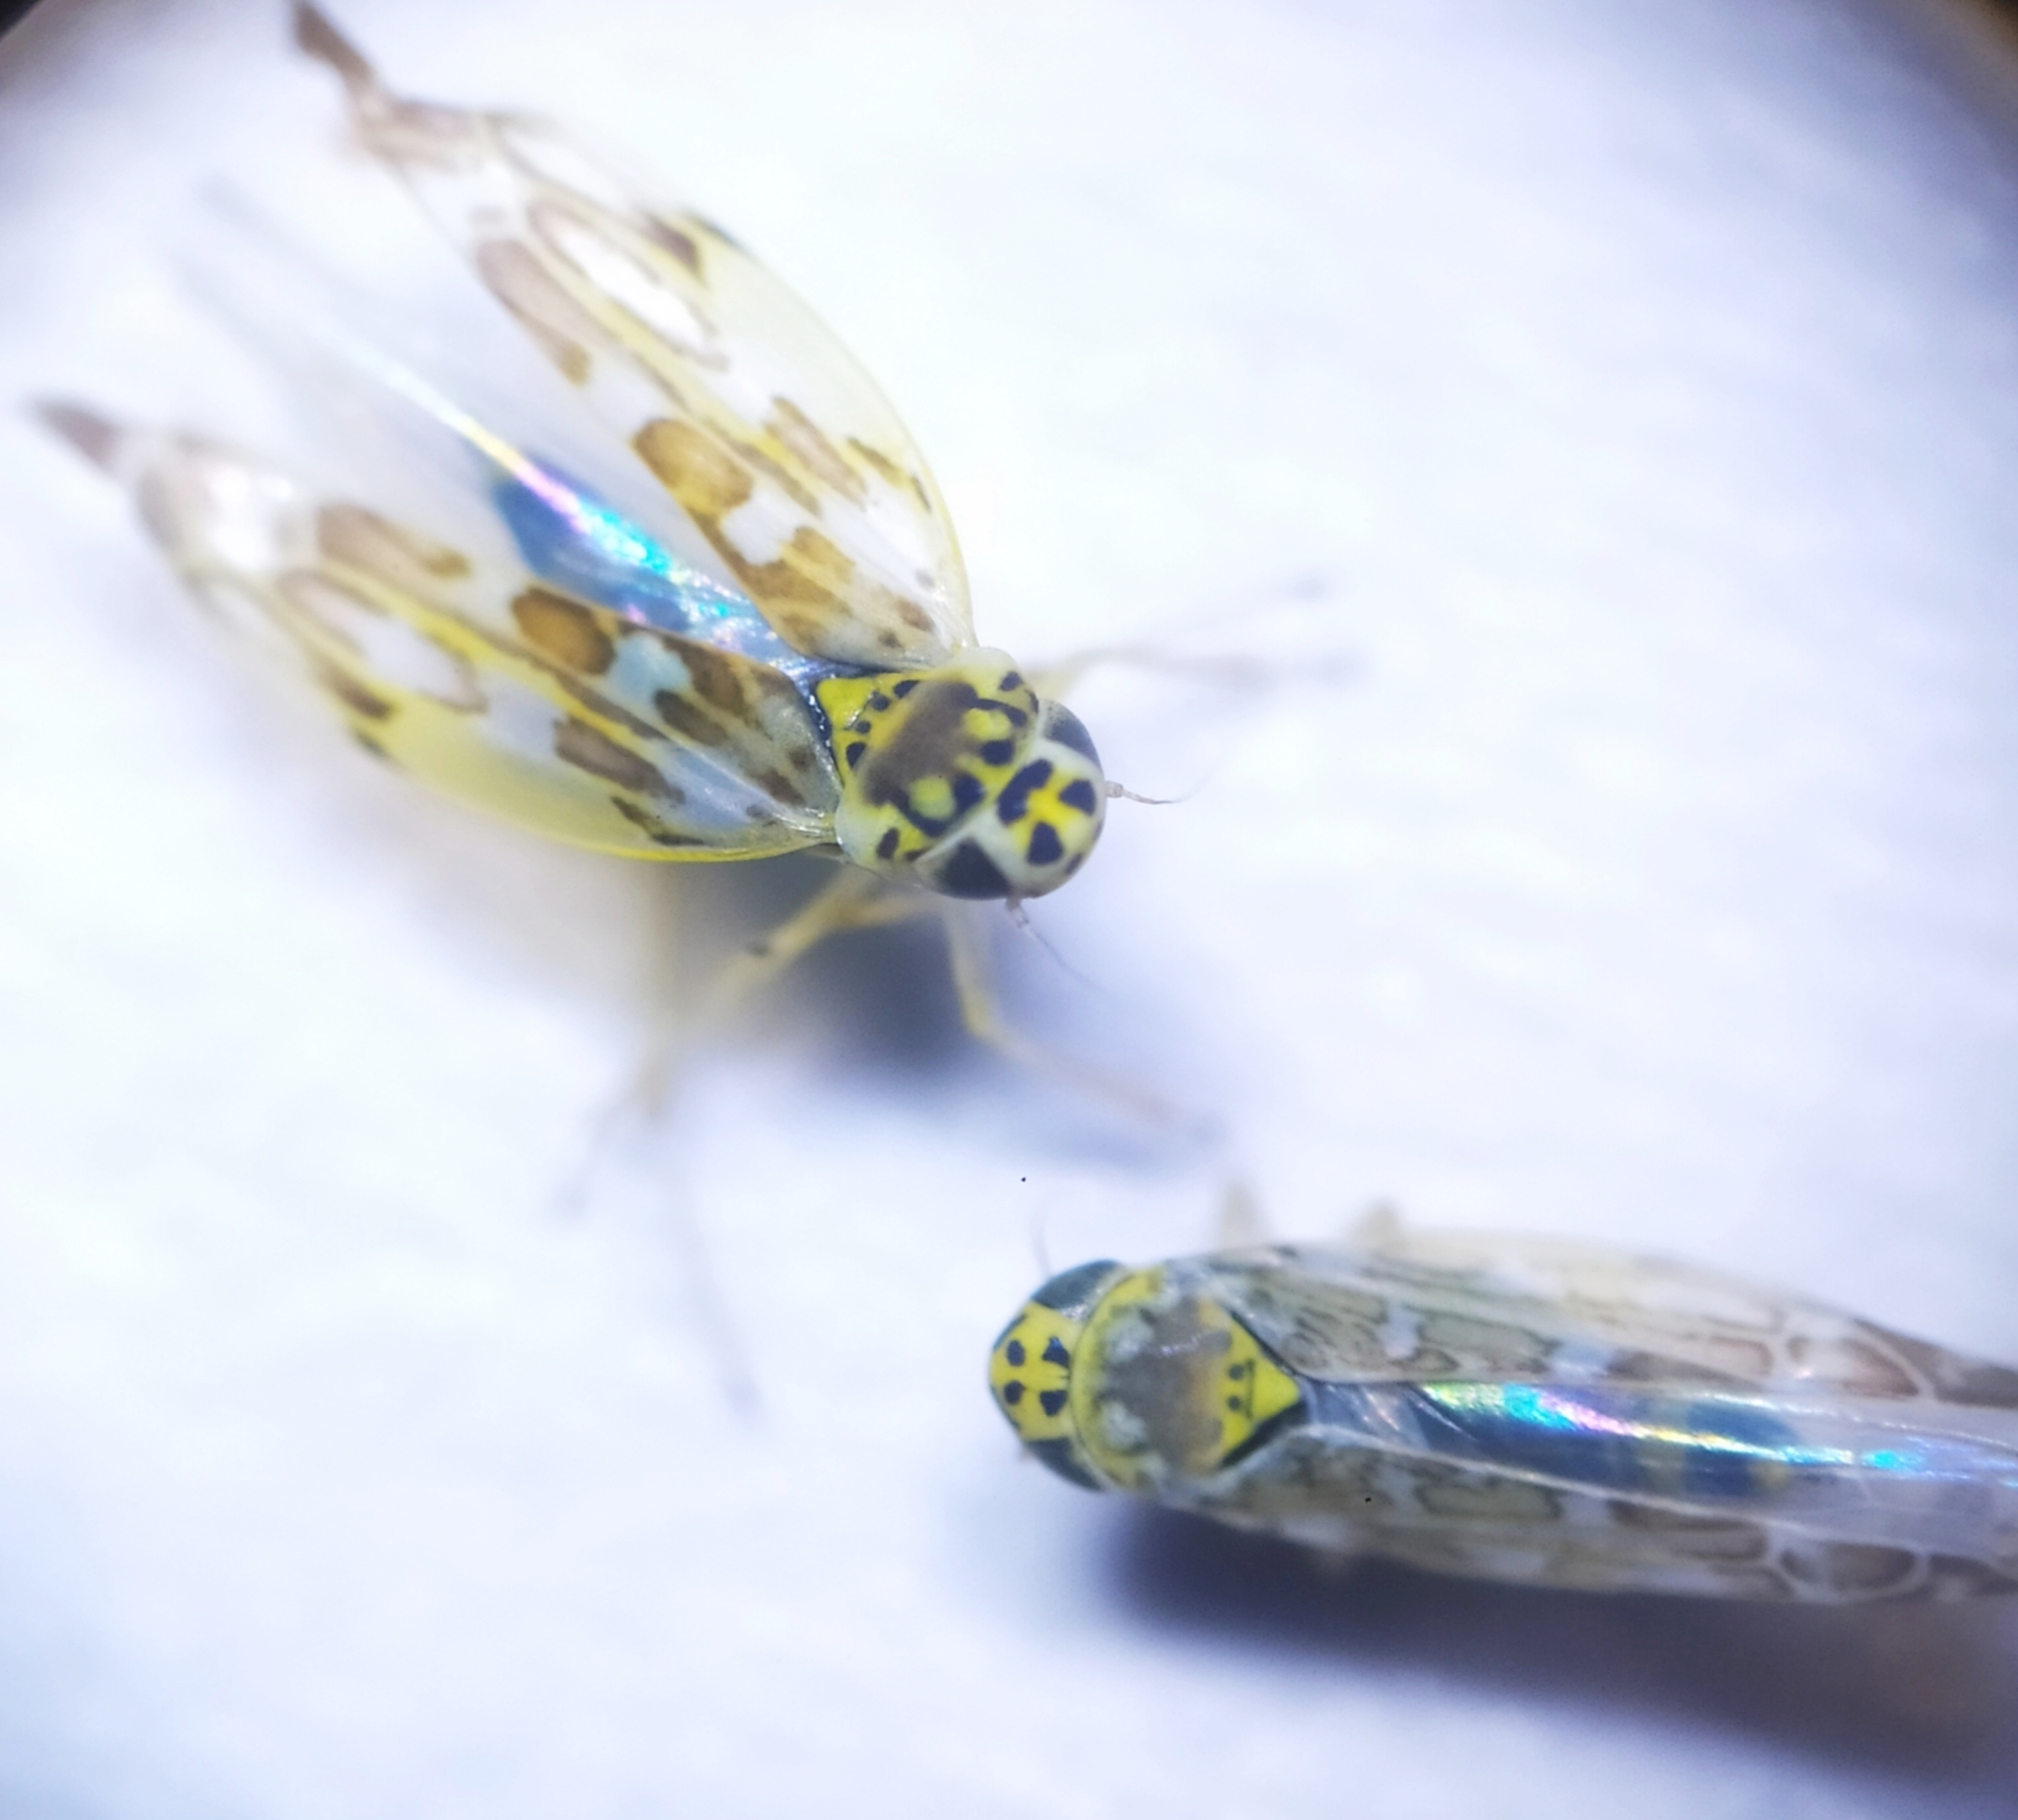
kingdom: Animalia
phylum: Arthropoda
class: Insecta
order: Hemiptera
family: Cicadellidae
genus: Eupteryx
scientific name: Eupteryx decemnotata
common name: Ligurian leafhopper
